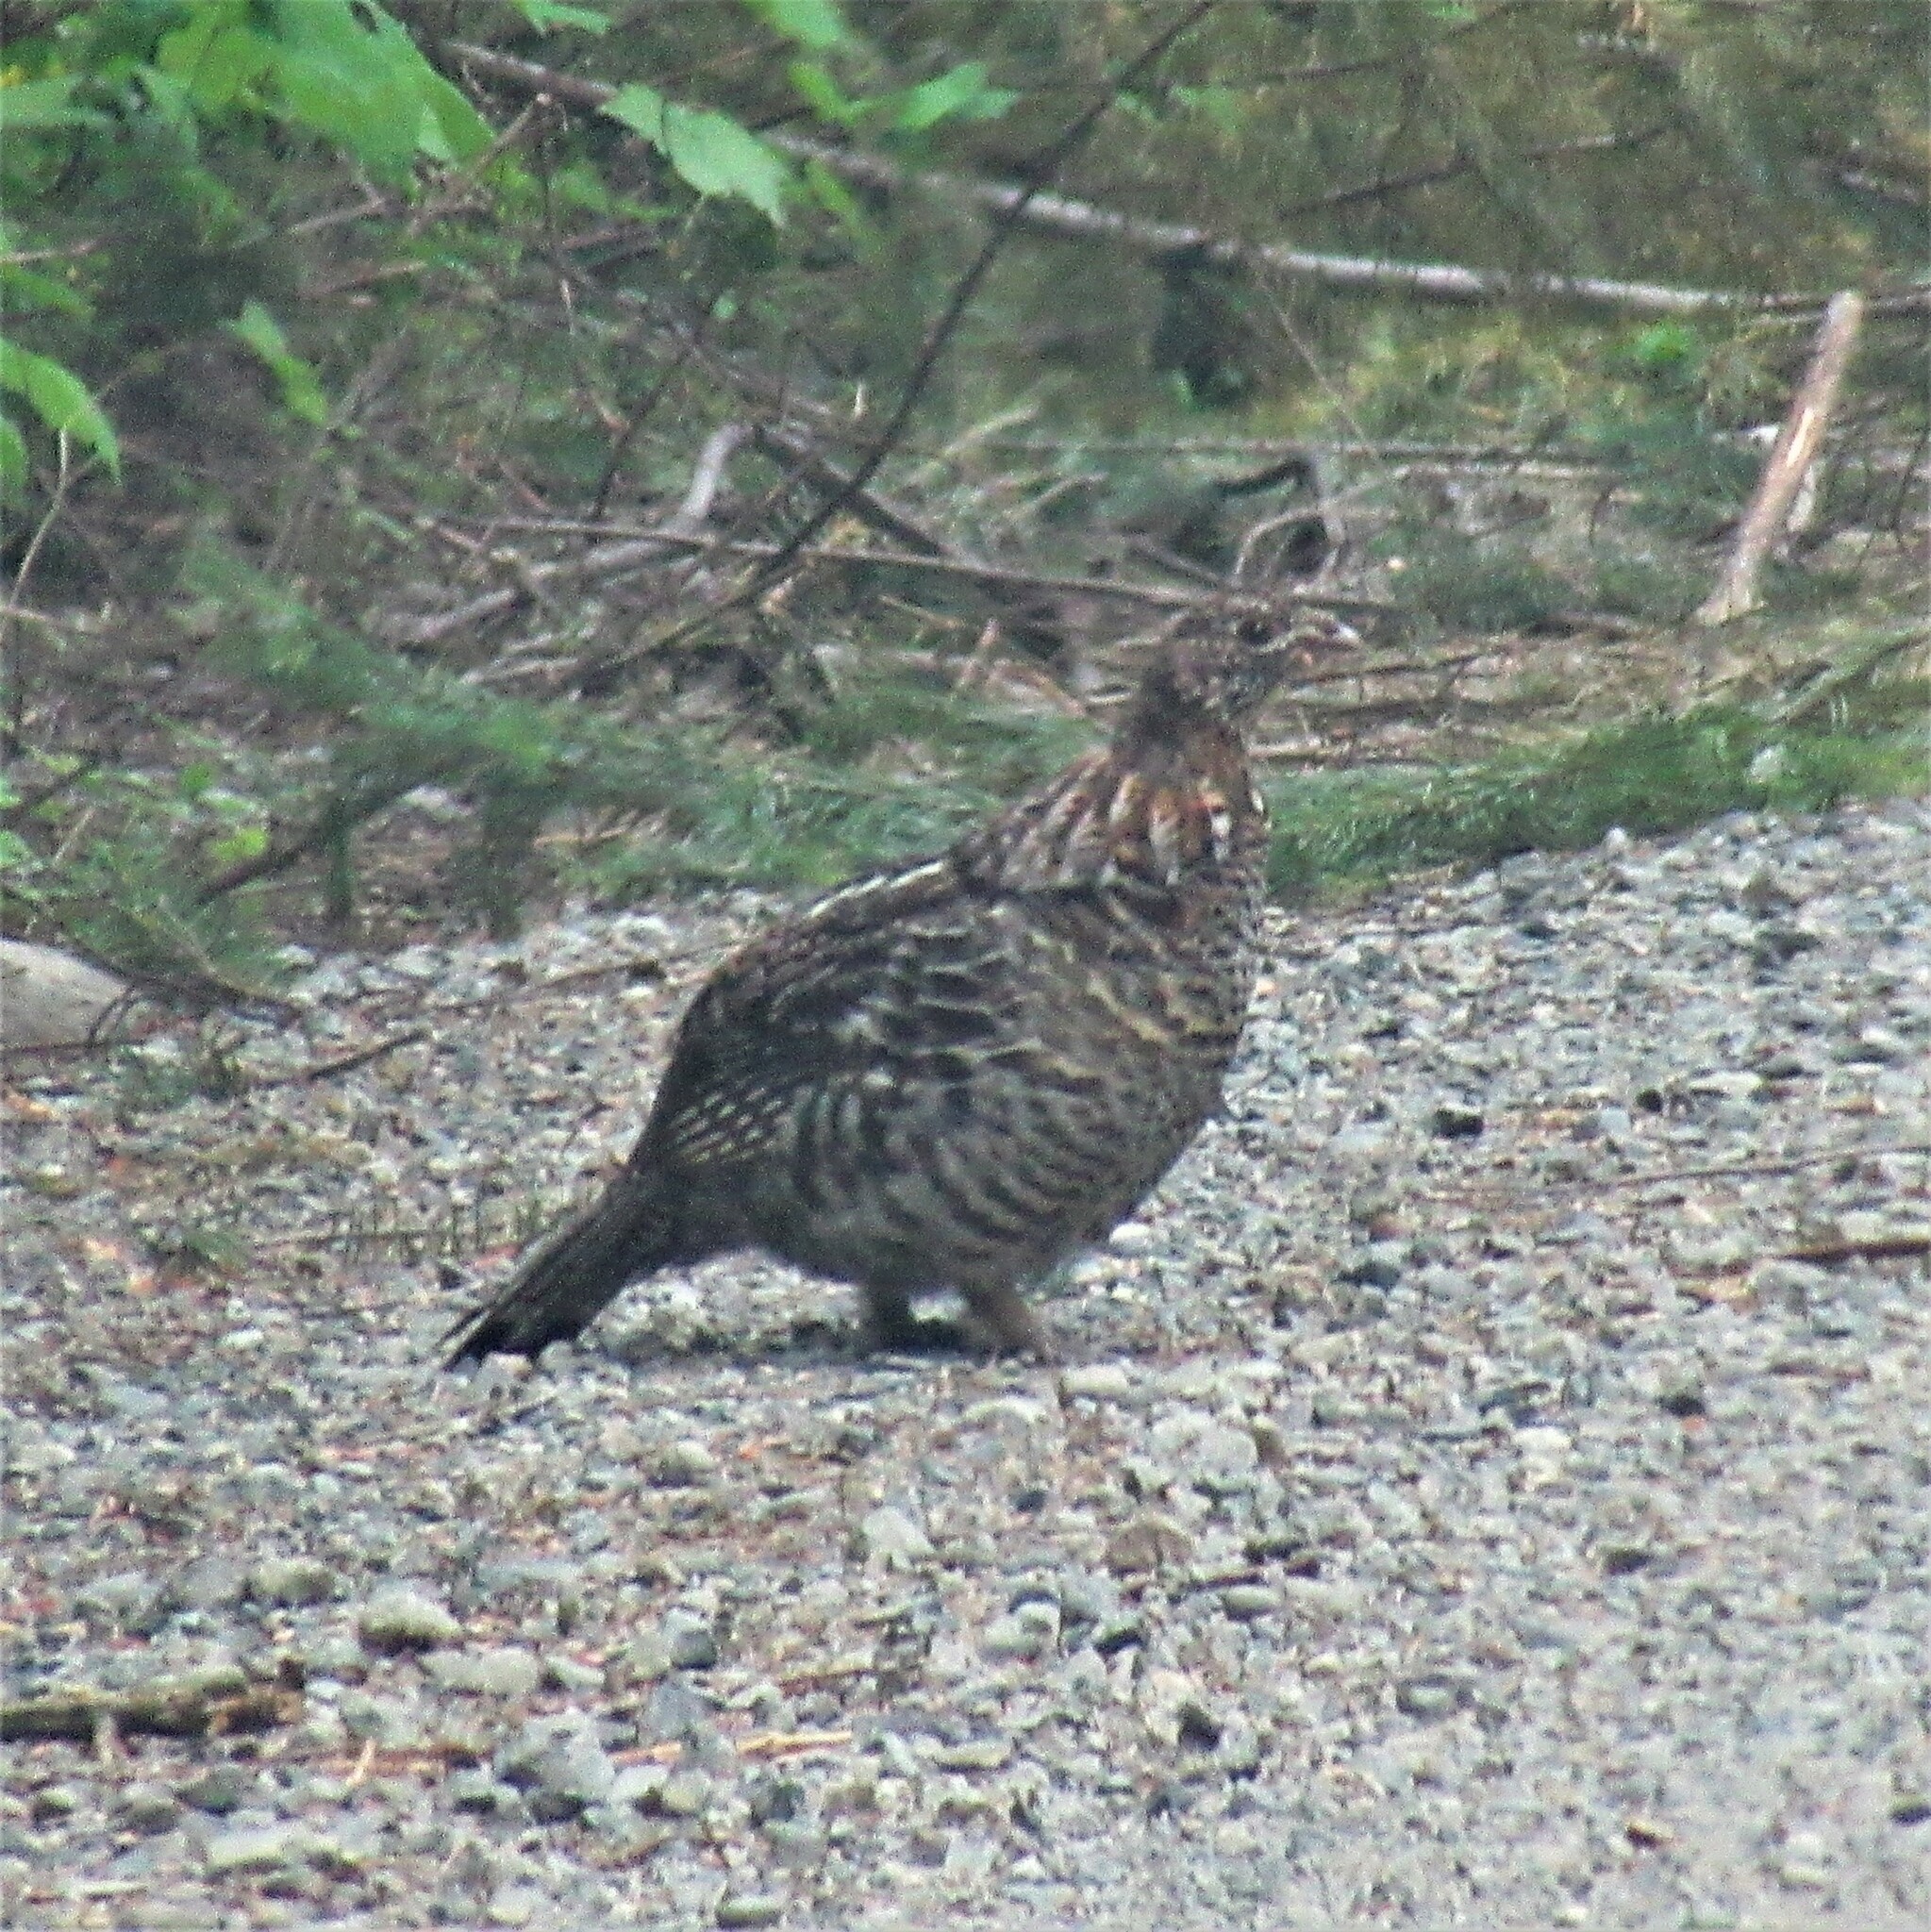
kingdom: Animalia
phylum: Chordata
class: Aves
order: Galliformes
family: Phasianidae
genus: Bonasa
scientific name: Bonasa umbellus
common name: Ruffed grouse
